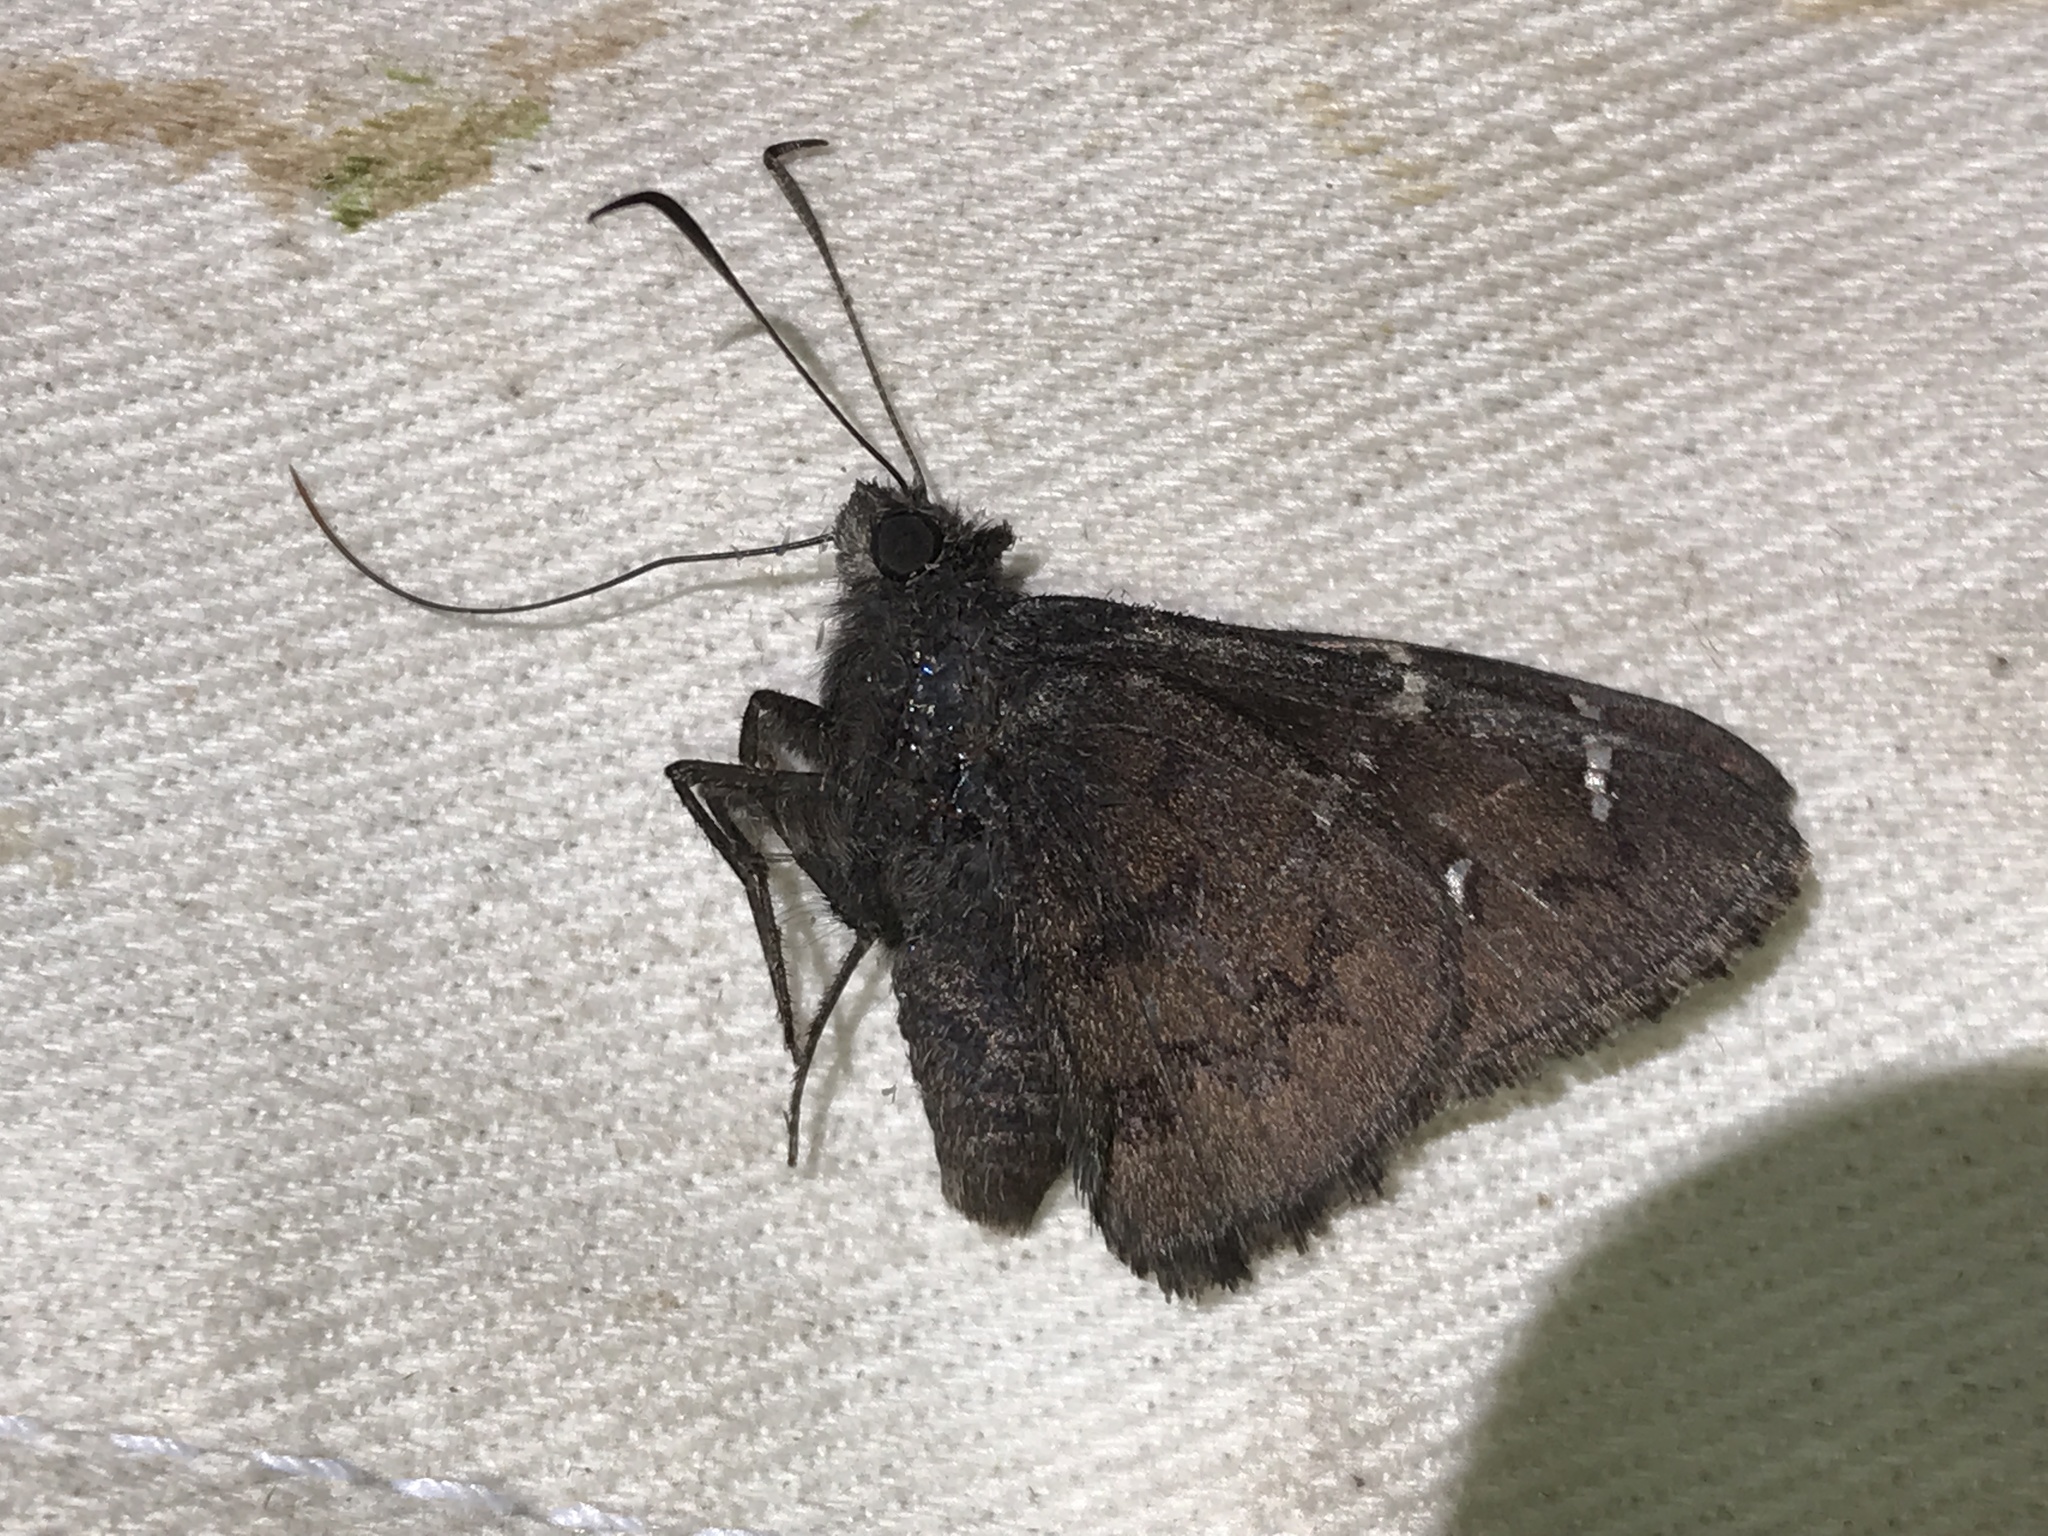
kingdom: Animalia
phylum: Arthropoda
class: Insecta
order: Lepidoptera
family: Hesperiidae
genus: Thorybes
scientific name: Thorybes pylades
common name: Northern cloudywing
